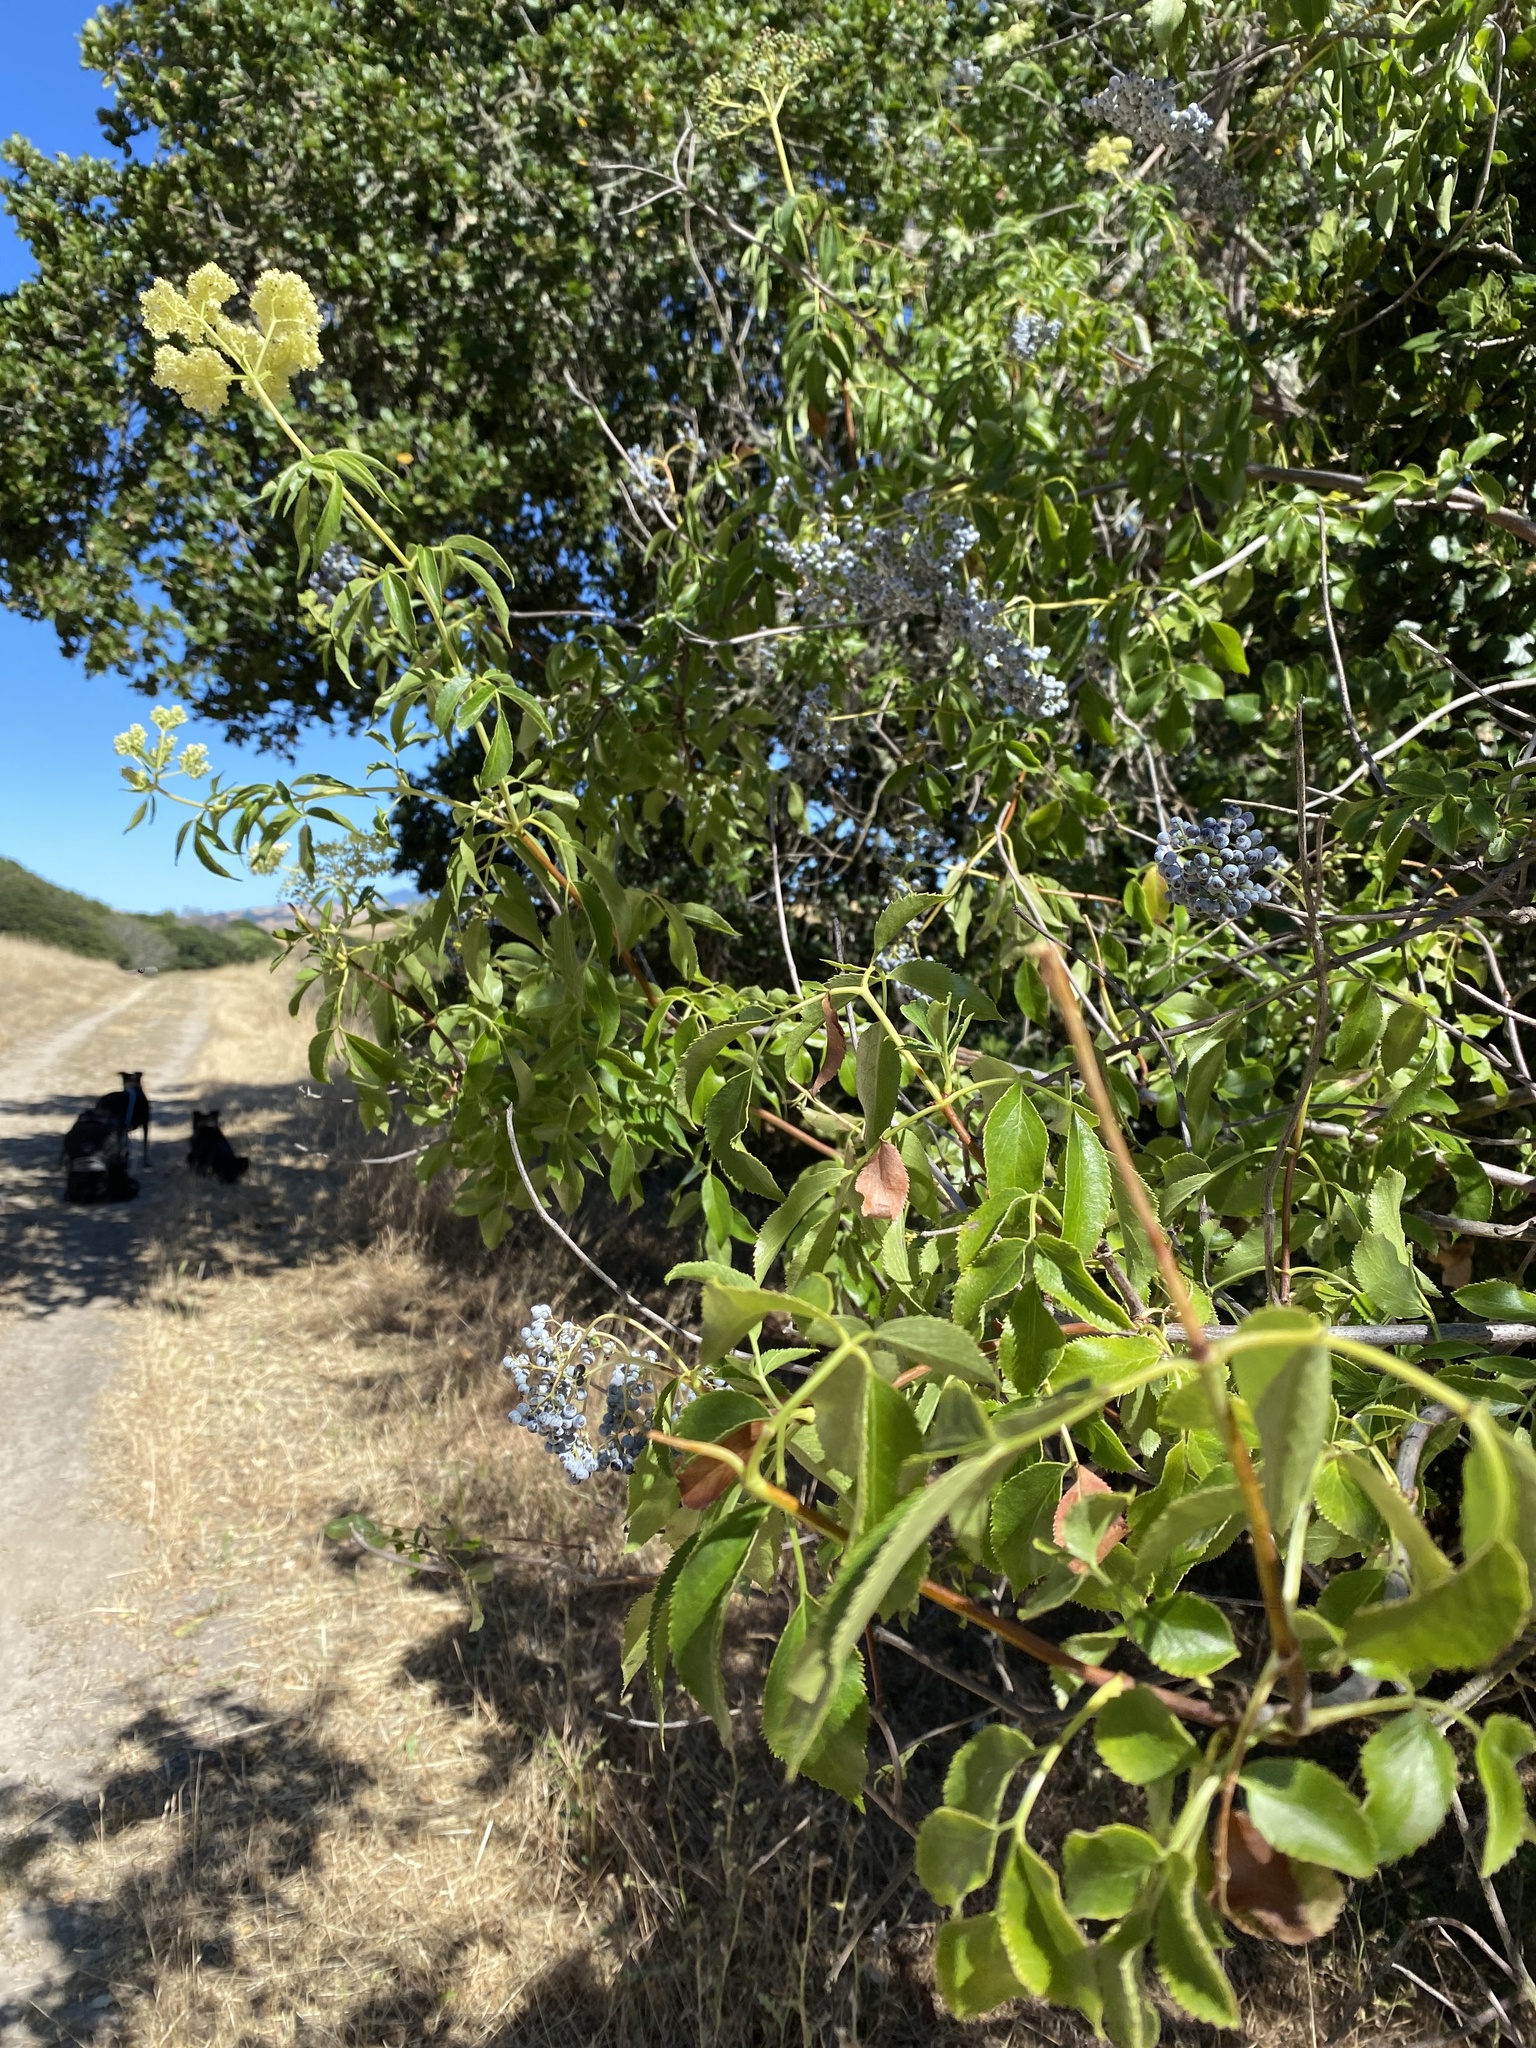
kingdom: Plantae
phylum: Tracheophyta
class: Magnoliopsida
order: Dipsacales
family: Viburnaceae
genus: Sambucus
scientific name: Sambucus cerulea
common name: Blue elder
